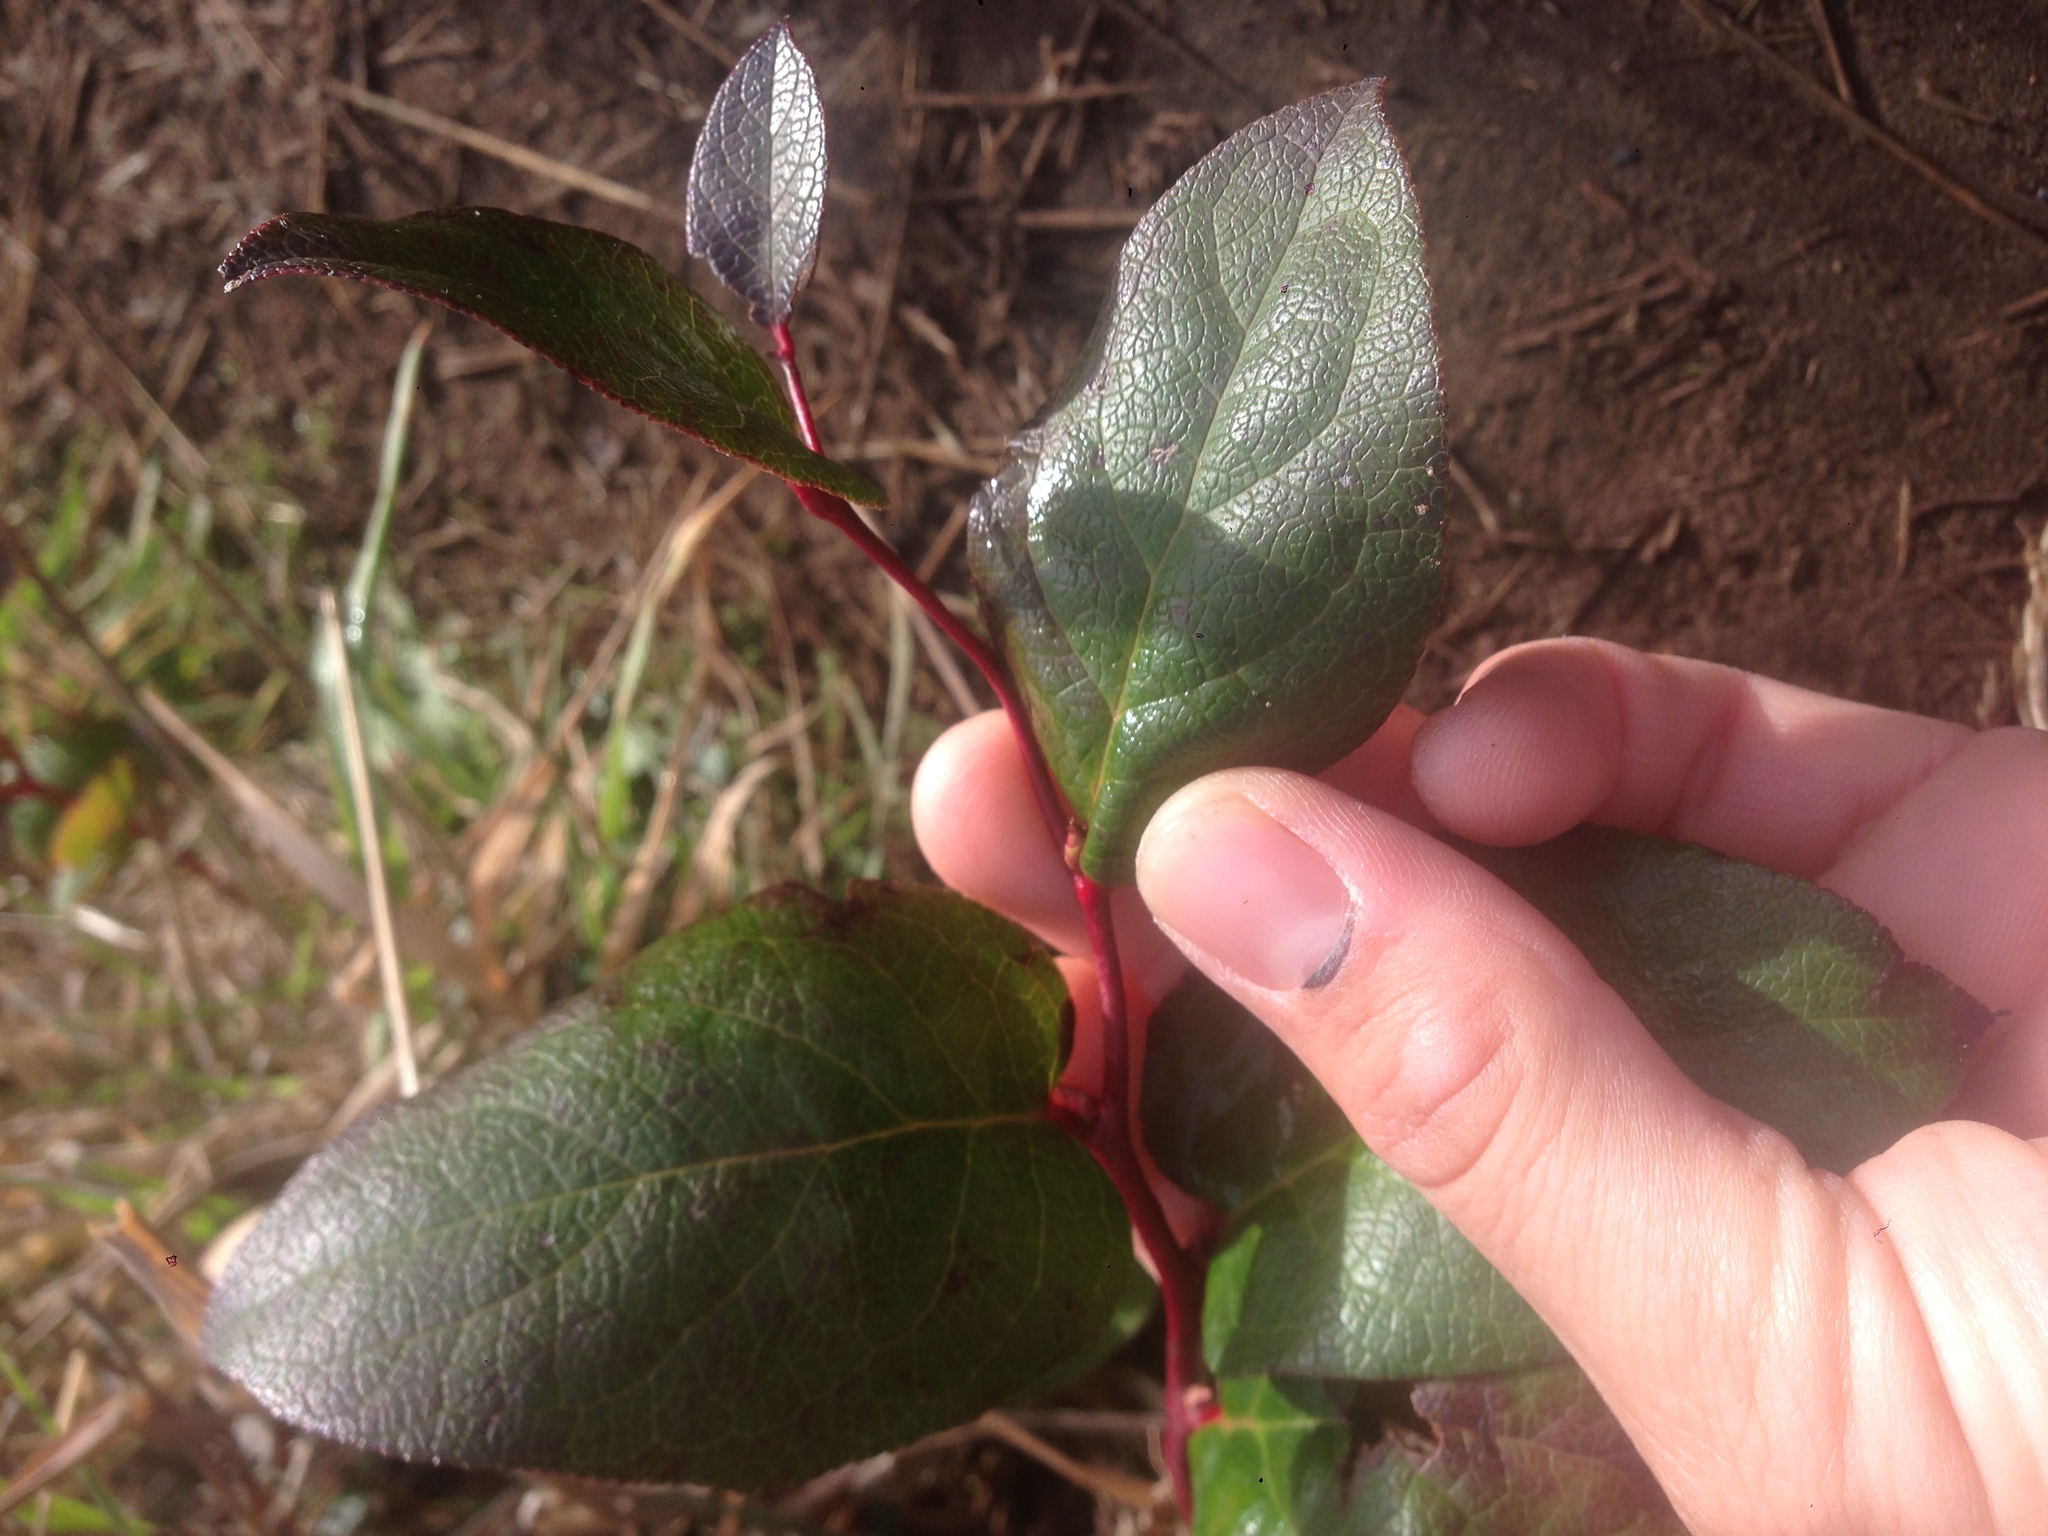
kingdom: Plantae
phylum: Tracheophyta
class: Magnoliopsida
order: Ericales
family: Ericaceae
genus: Gaultheria
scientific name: Gaultheria shallon
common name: Shallon
